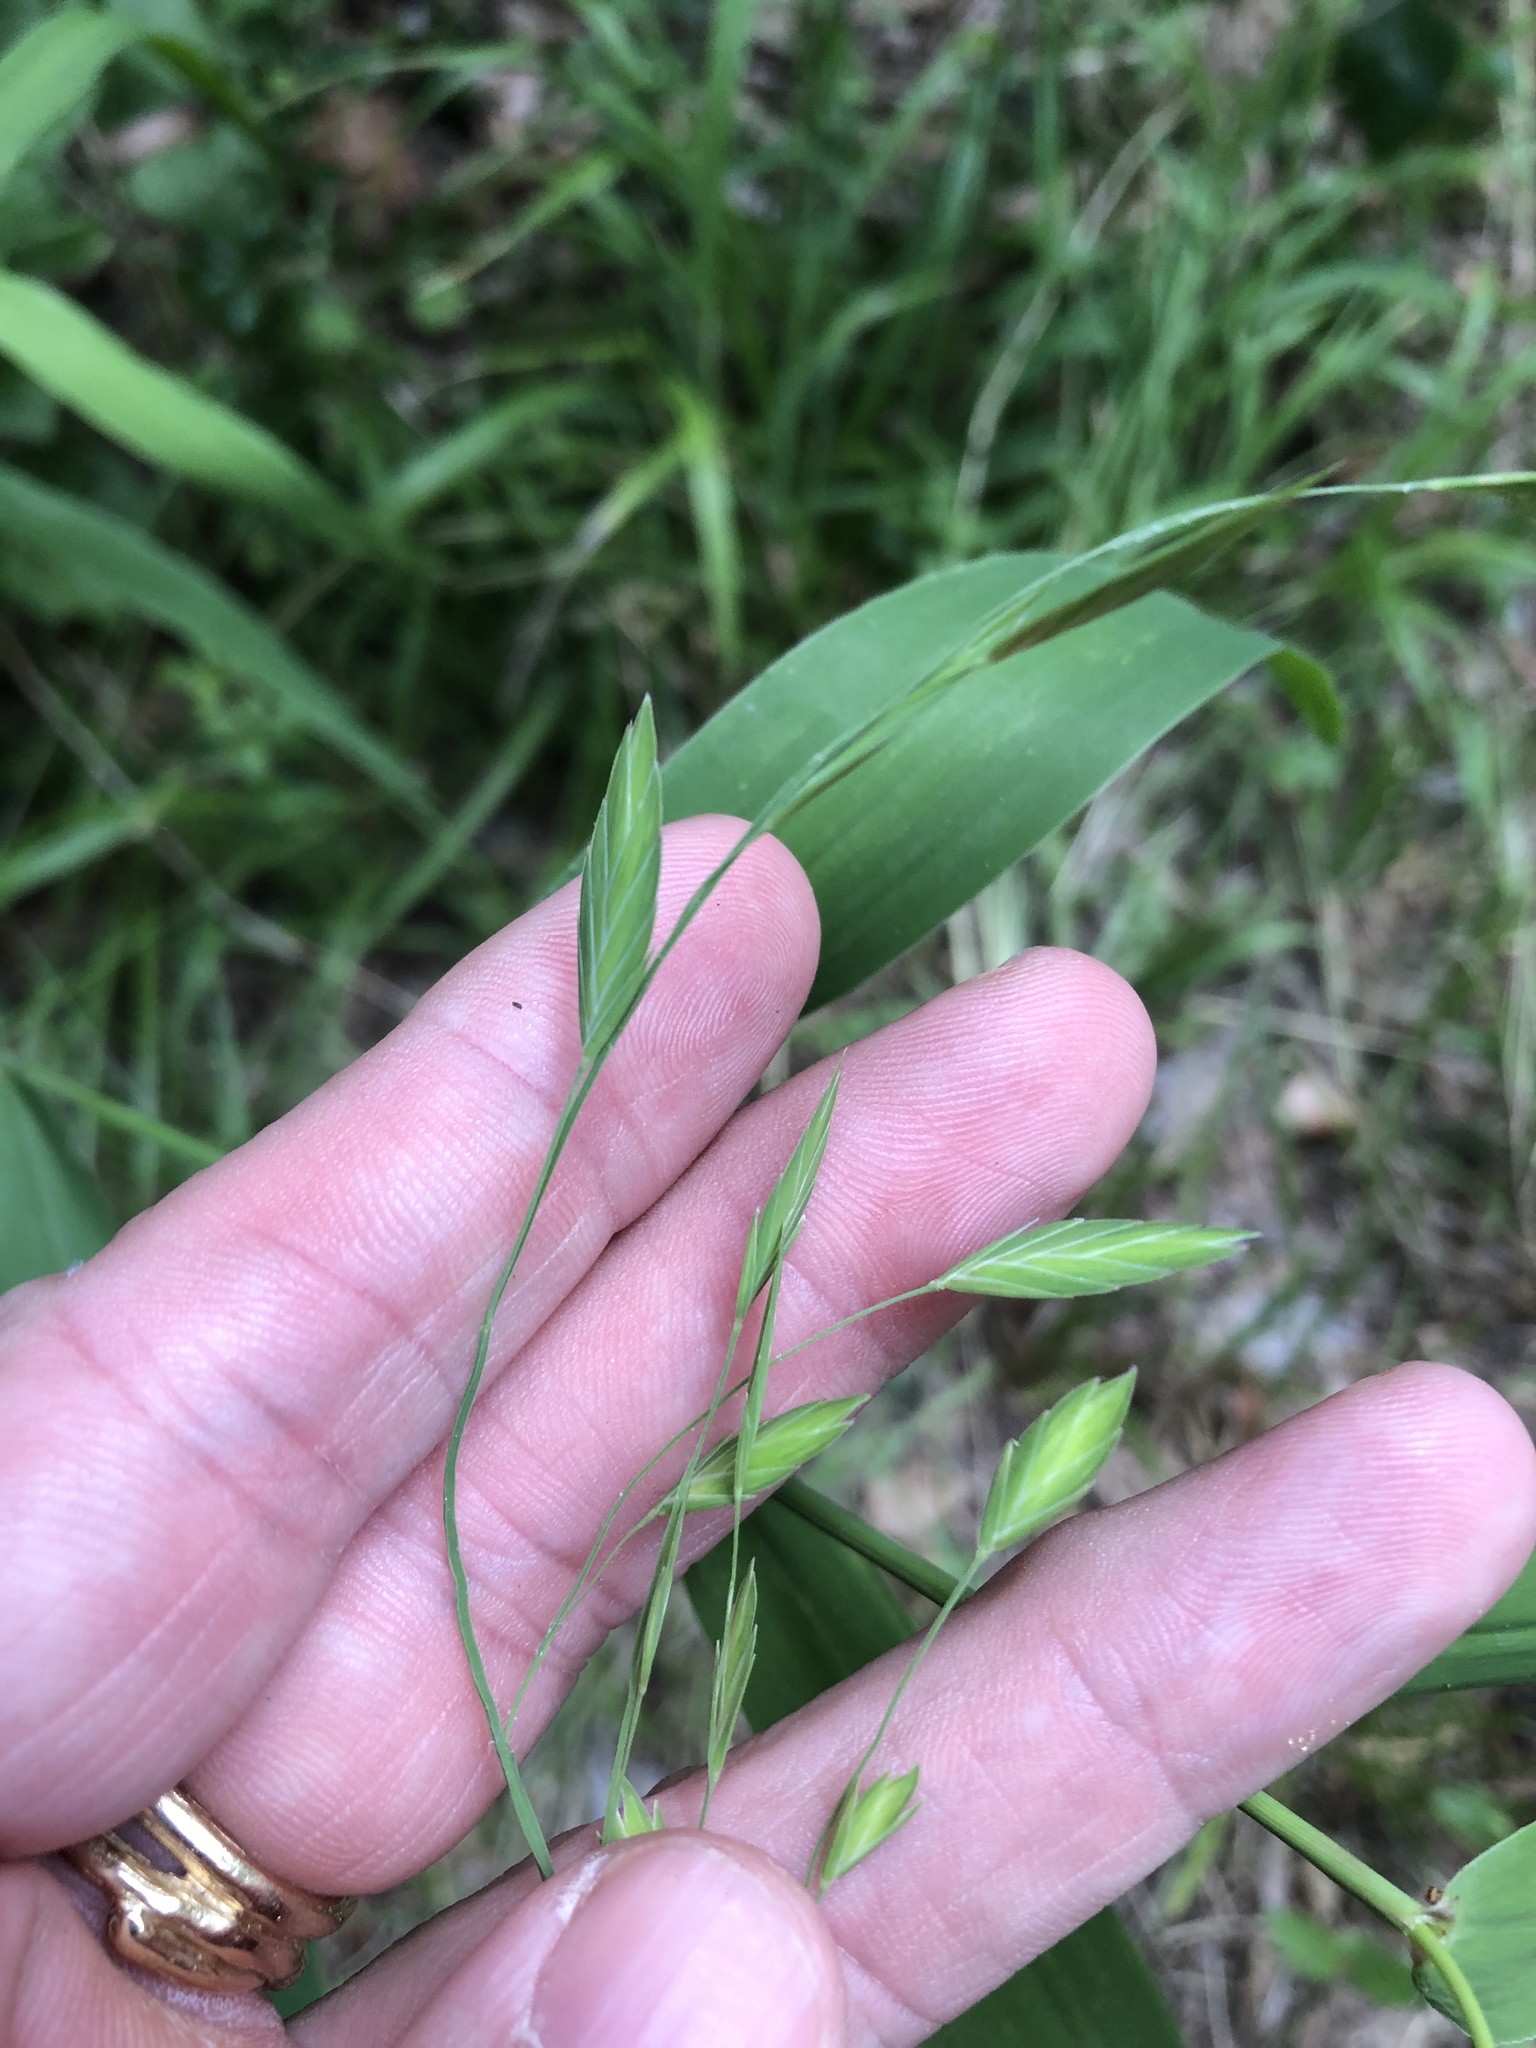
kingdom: Plantae
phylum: Tracheophyta
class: Liliopsida
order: Poales
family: Poaceae
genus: Chasmanthium
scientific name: Chasmanthium latifolium
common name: Broad-leaved chasmanthium
